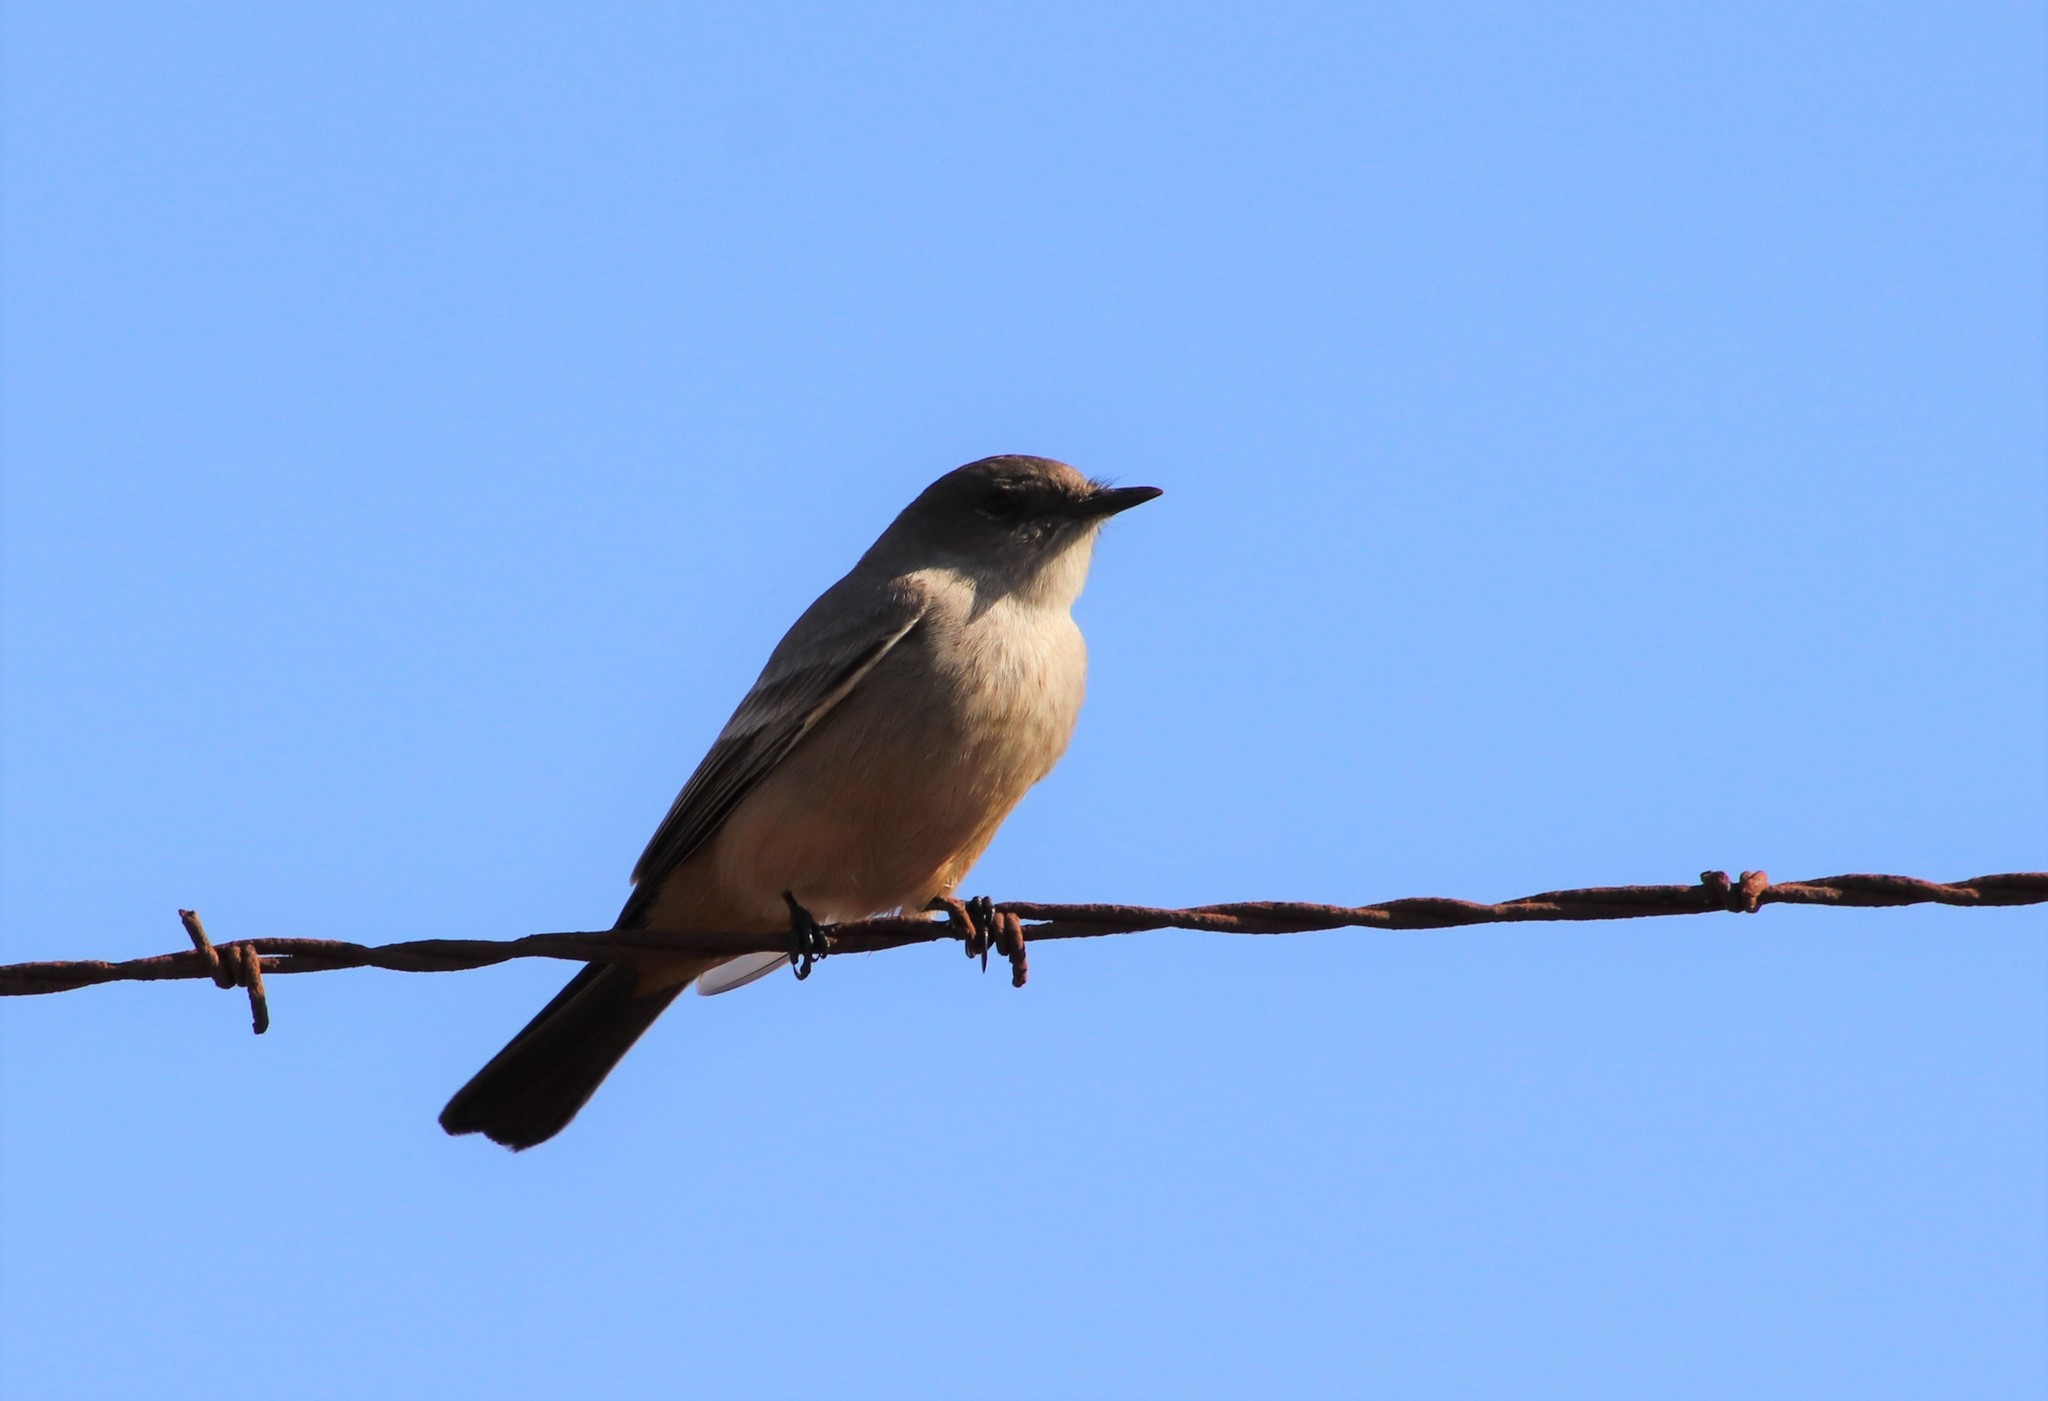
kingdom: Animalia
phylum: Chordata
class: Aves
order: Passeriformes
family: Tyrannidae
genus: Sayornis
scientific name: Sayornis saya
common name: Say's phoebe
